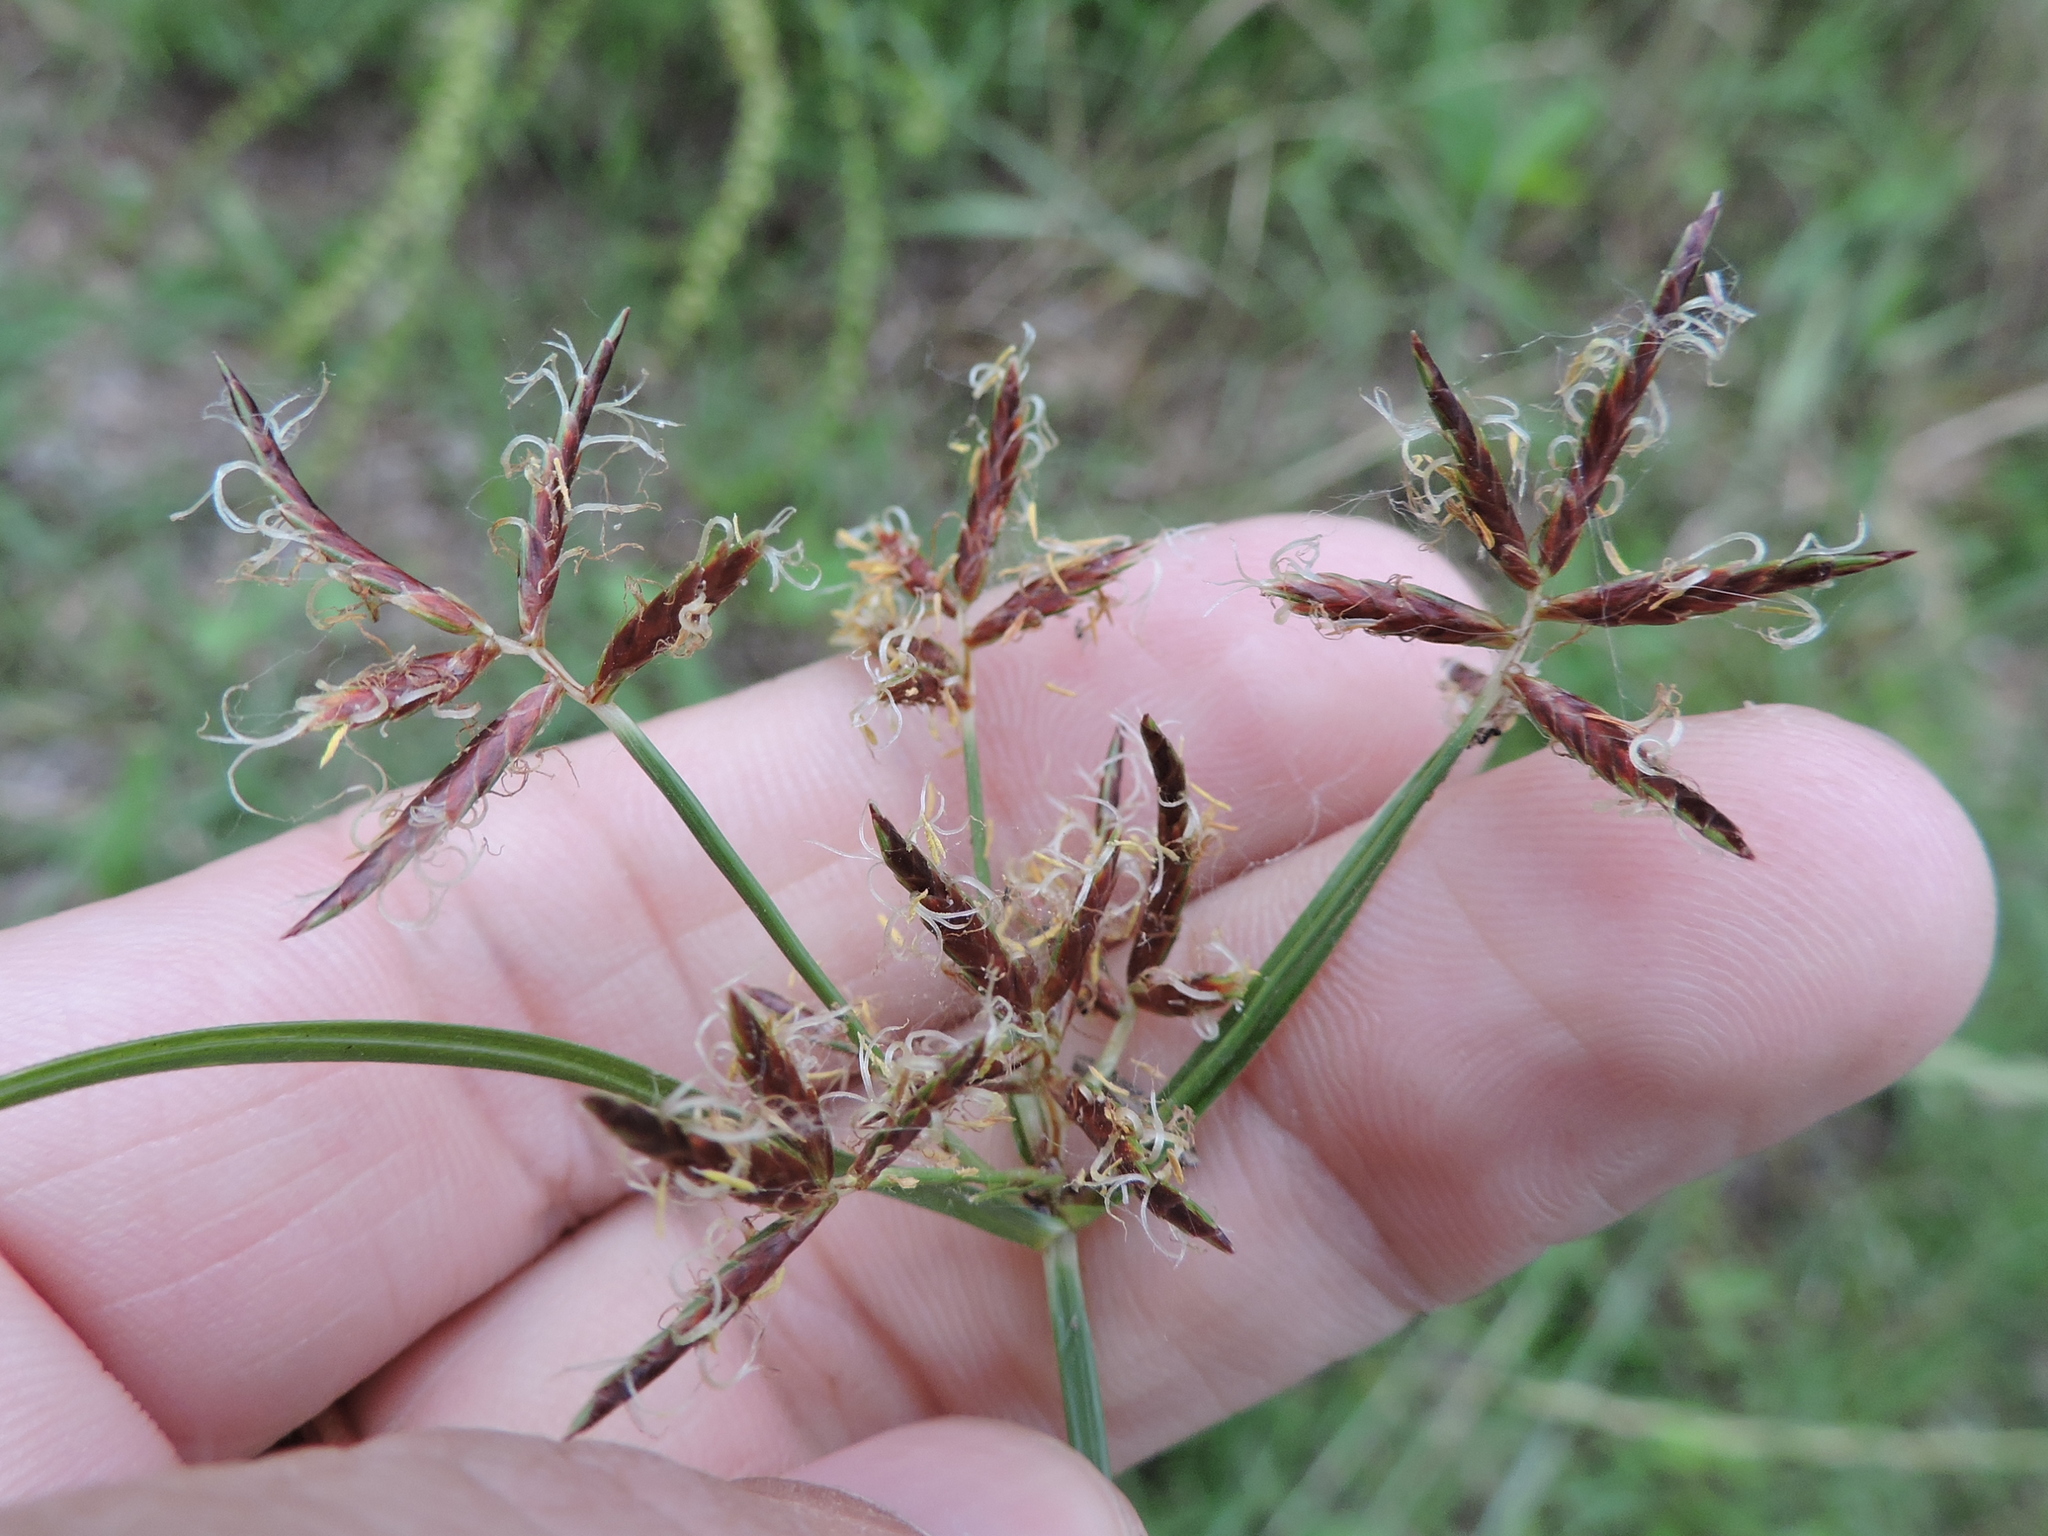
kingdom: Plantae
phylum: Tracheophyta
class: Liliopsida
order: Poales
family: Cyperaceae
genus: Cyperus
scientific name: Cyperus rotundus
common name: Nutgrass
